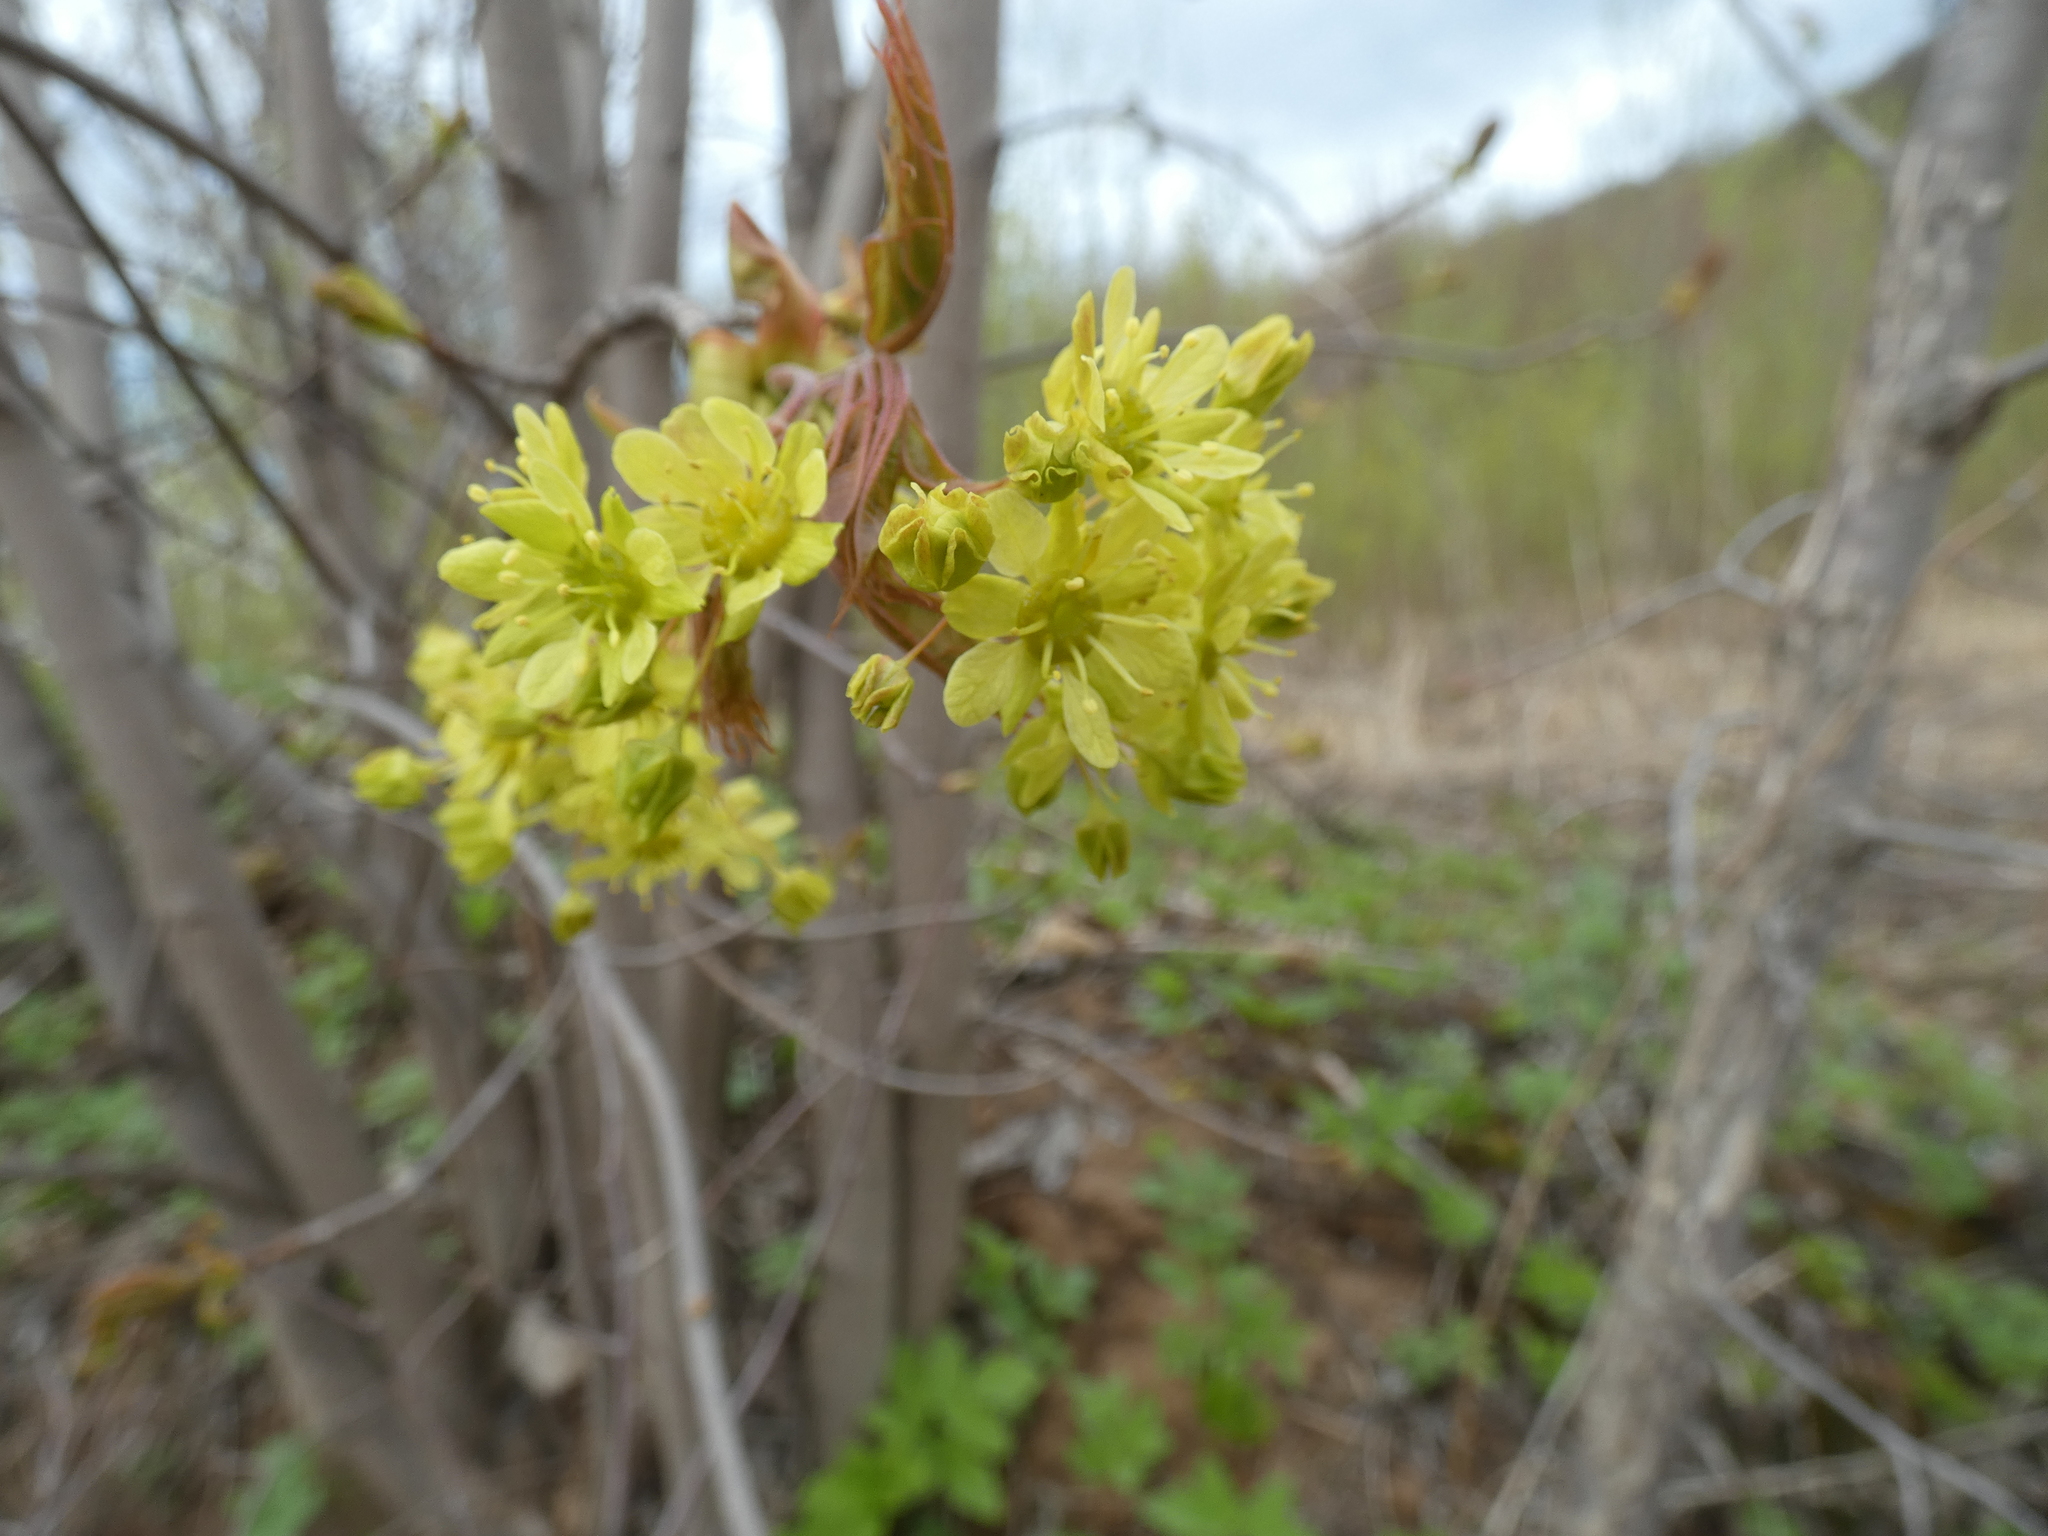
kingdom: Plantae
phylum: Tracheophyta
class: Magnoliopsida
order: Sapindales
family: Sapindaceae
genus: Acer
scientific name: Acer negundo
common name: Ashleaf maple
